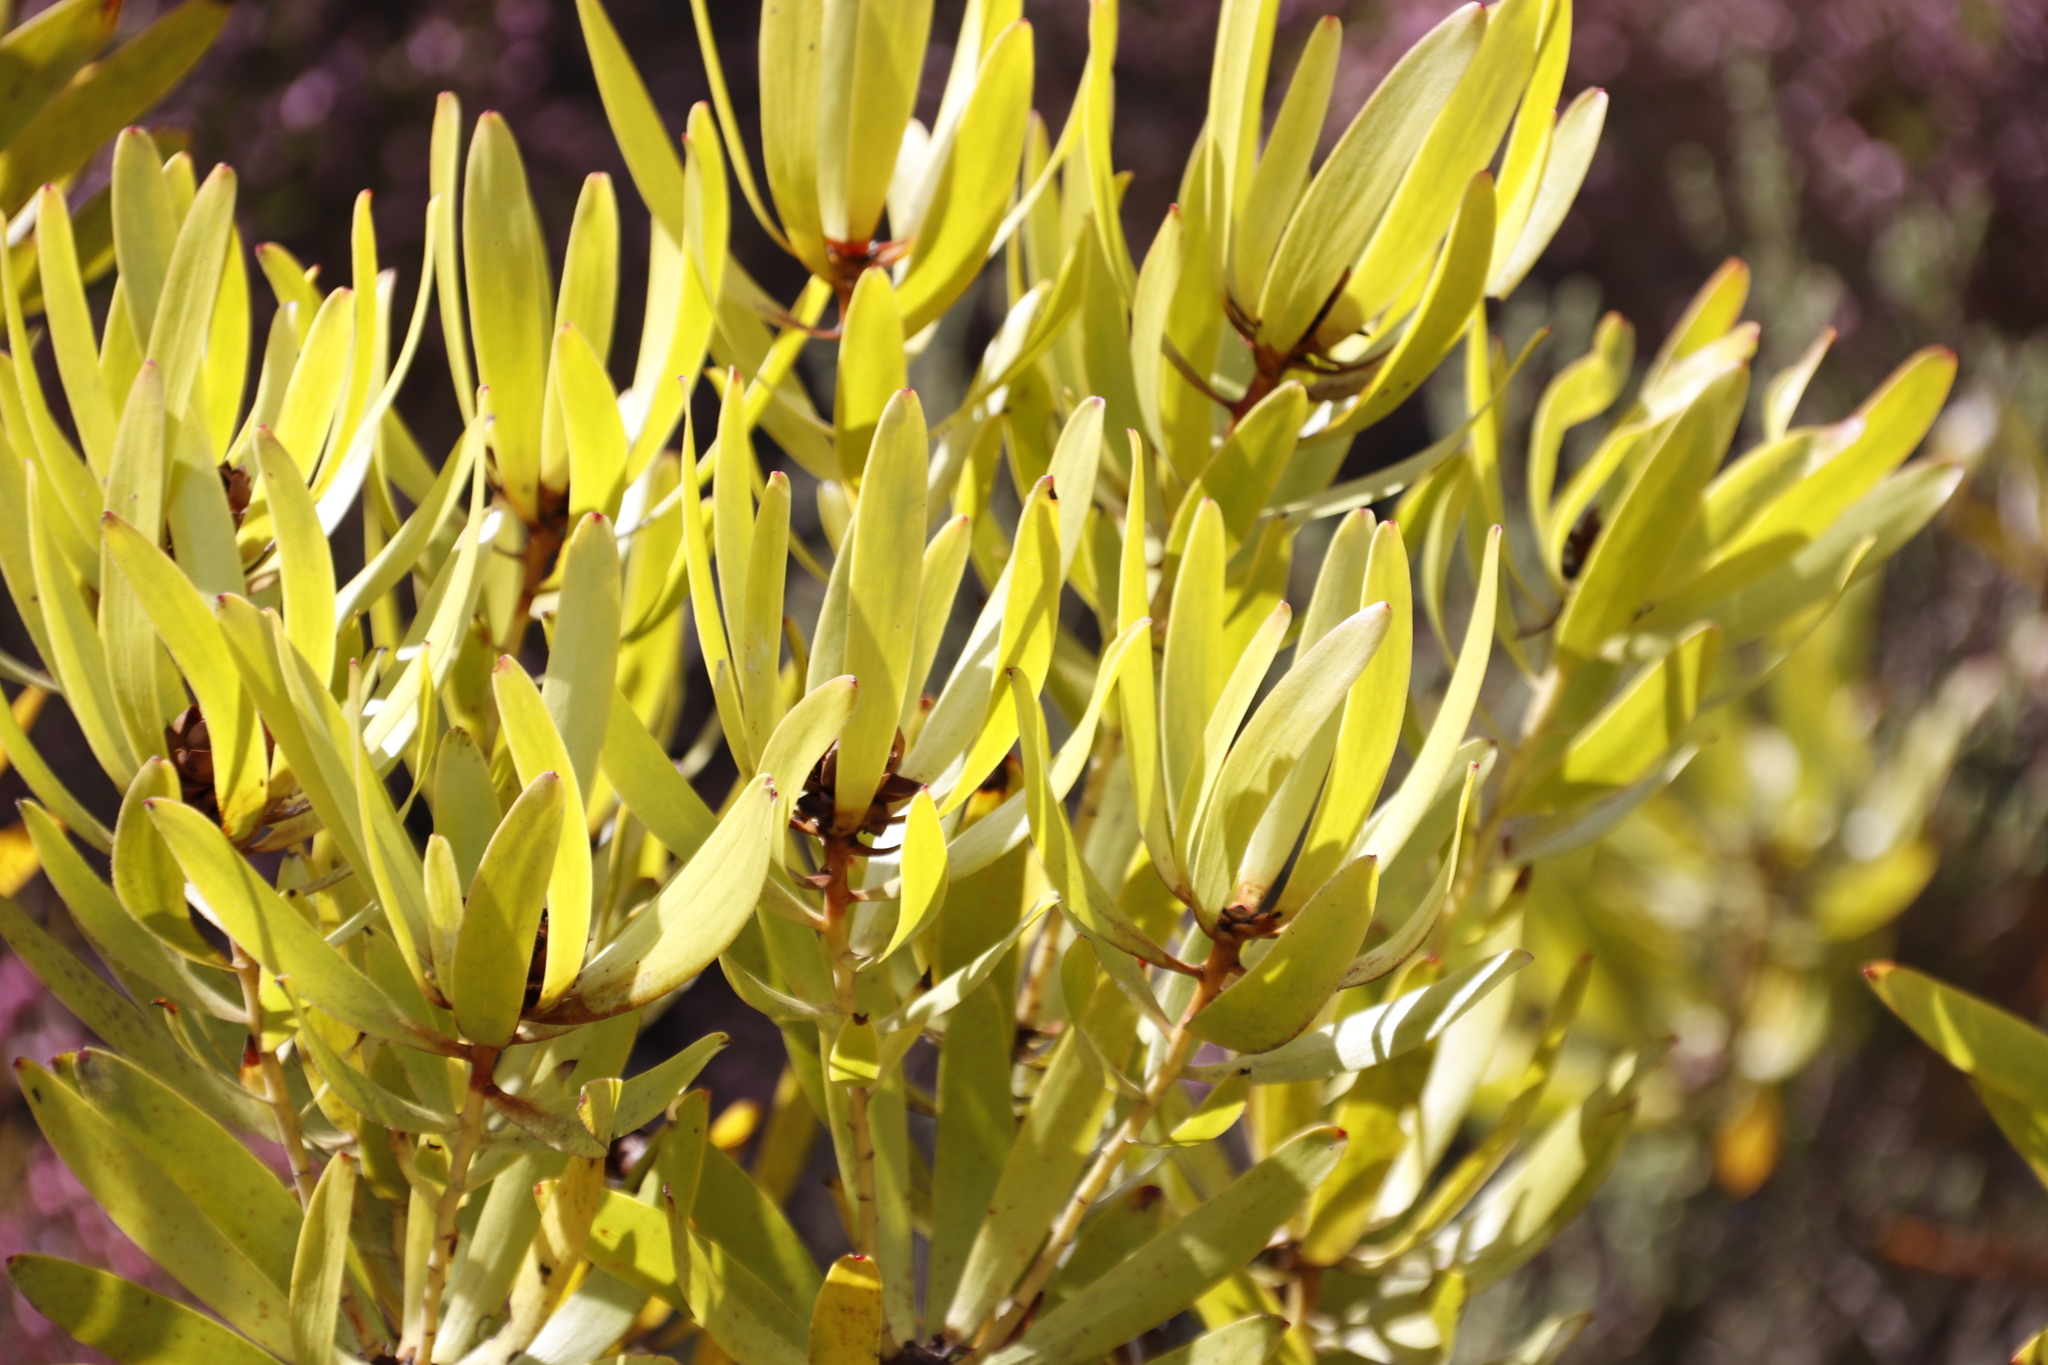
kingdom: Plantae
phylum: Tracheophyta
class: Magnoliopsida
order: Proteales
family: Proteaceae
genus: Leucadendron
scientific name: Leucadendron microcephalum
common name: Oilbract conebush
